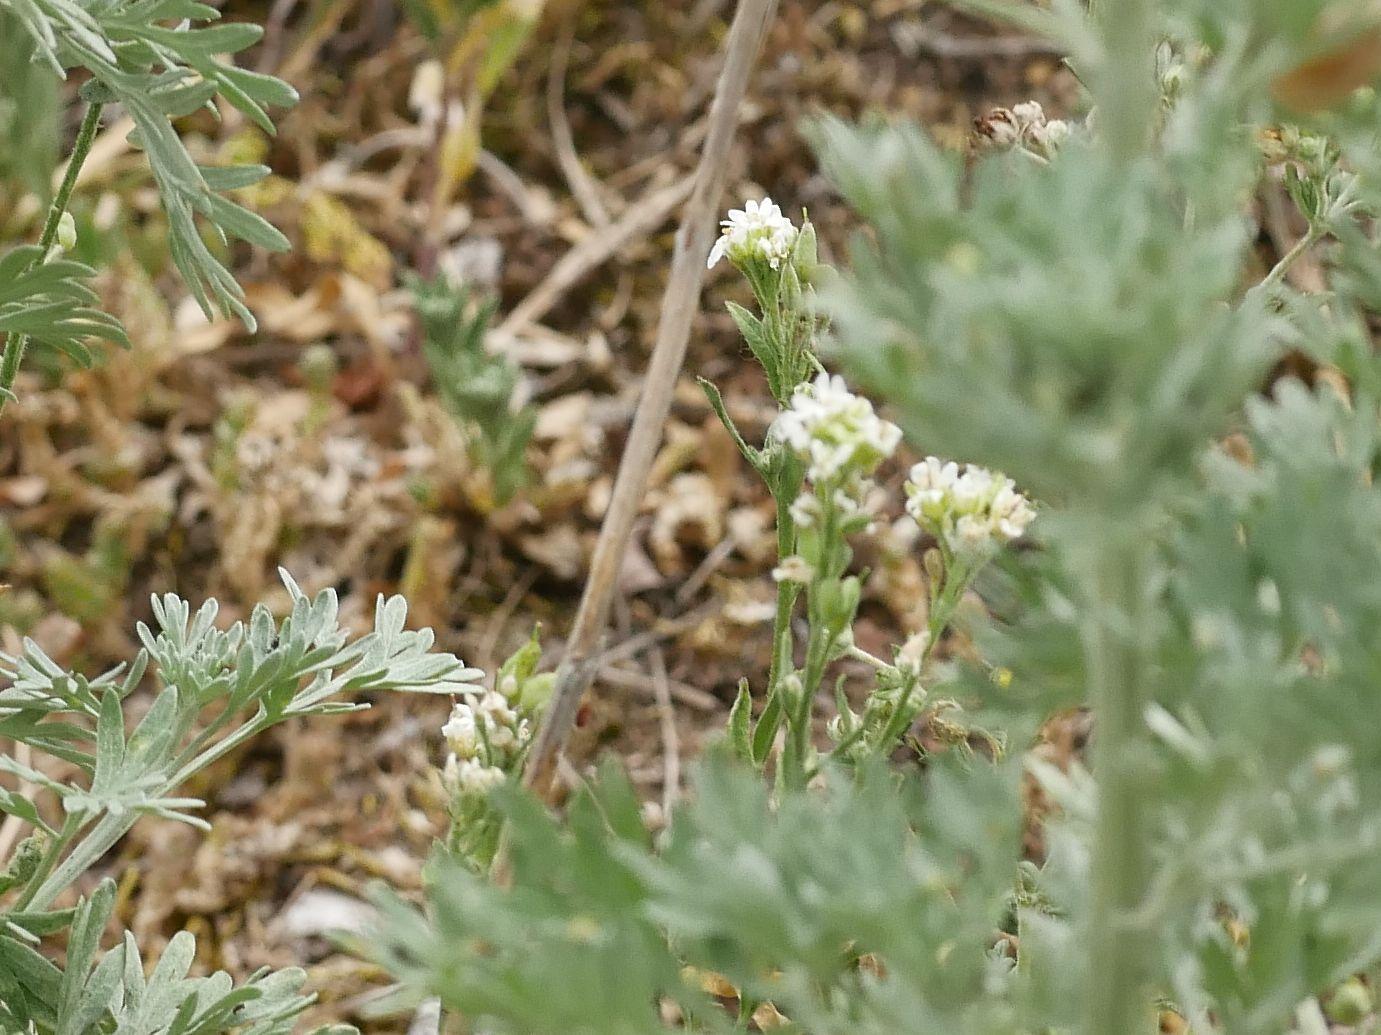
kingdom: Plantae
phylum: Tracheophyta
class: Magnoliopsida
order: Brassicales
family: Brassicaceae
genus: Berteroa
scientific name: Berteroa incana
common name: Hoary alison
